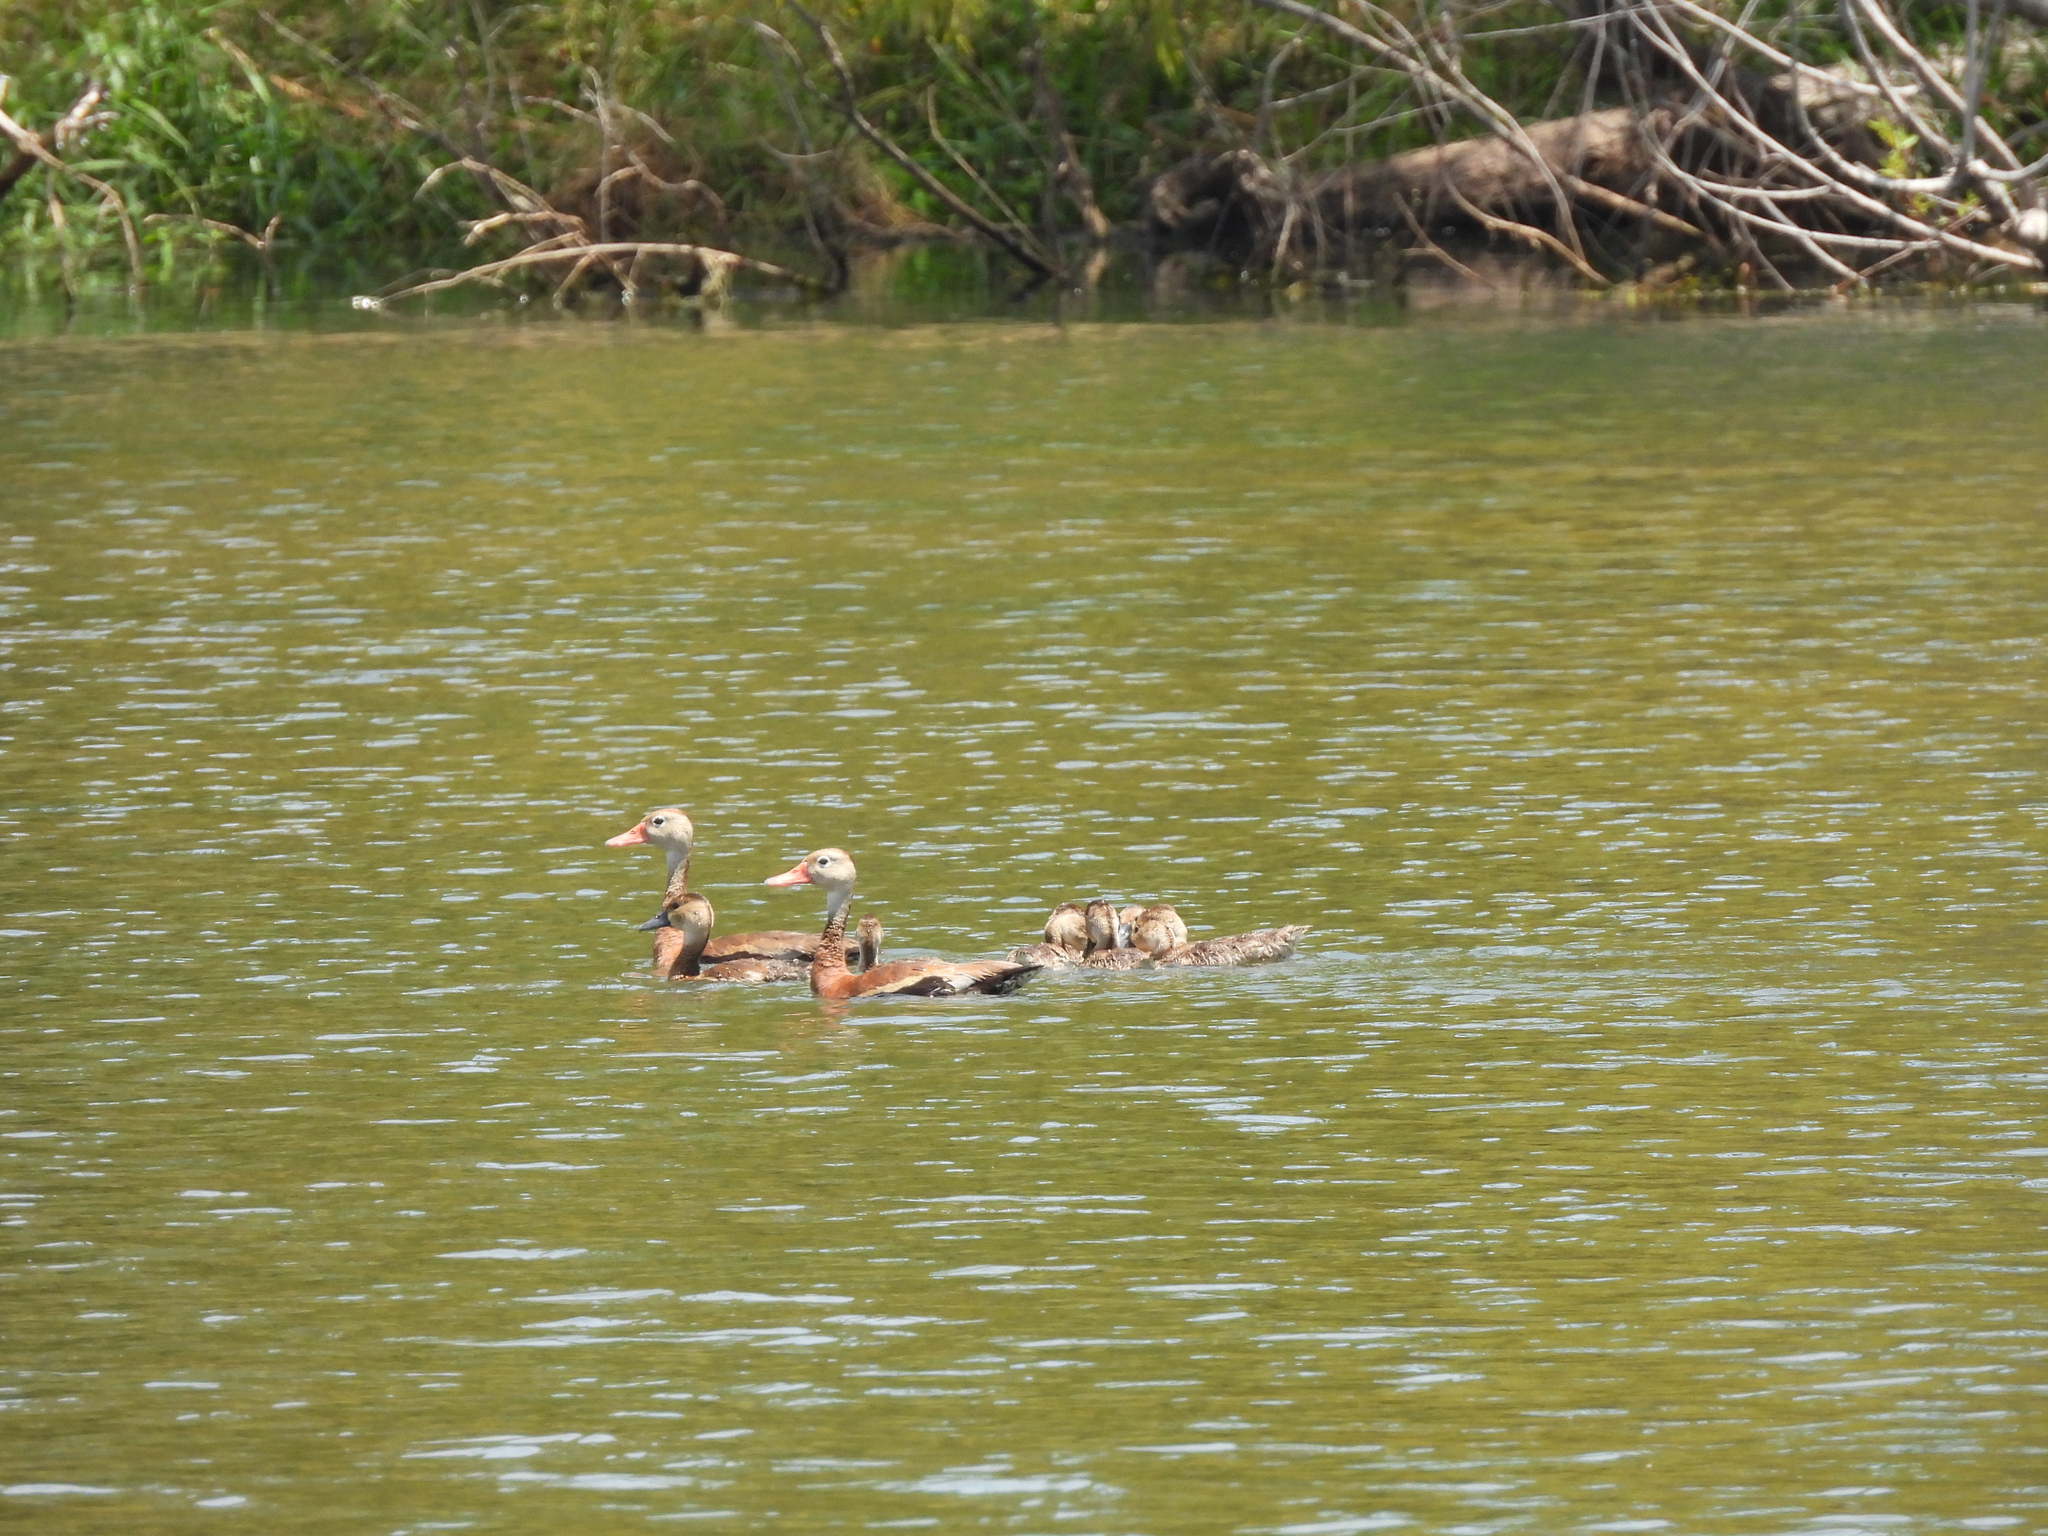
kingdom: Animalia
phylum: Chordata
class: Aves
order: Anseriformes
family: Anatidae
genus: Dendrocygna
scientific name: Dendrocygna autumnalis
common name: Black-bellied whistling duck
